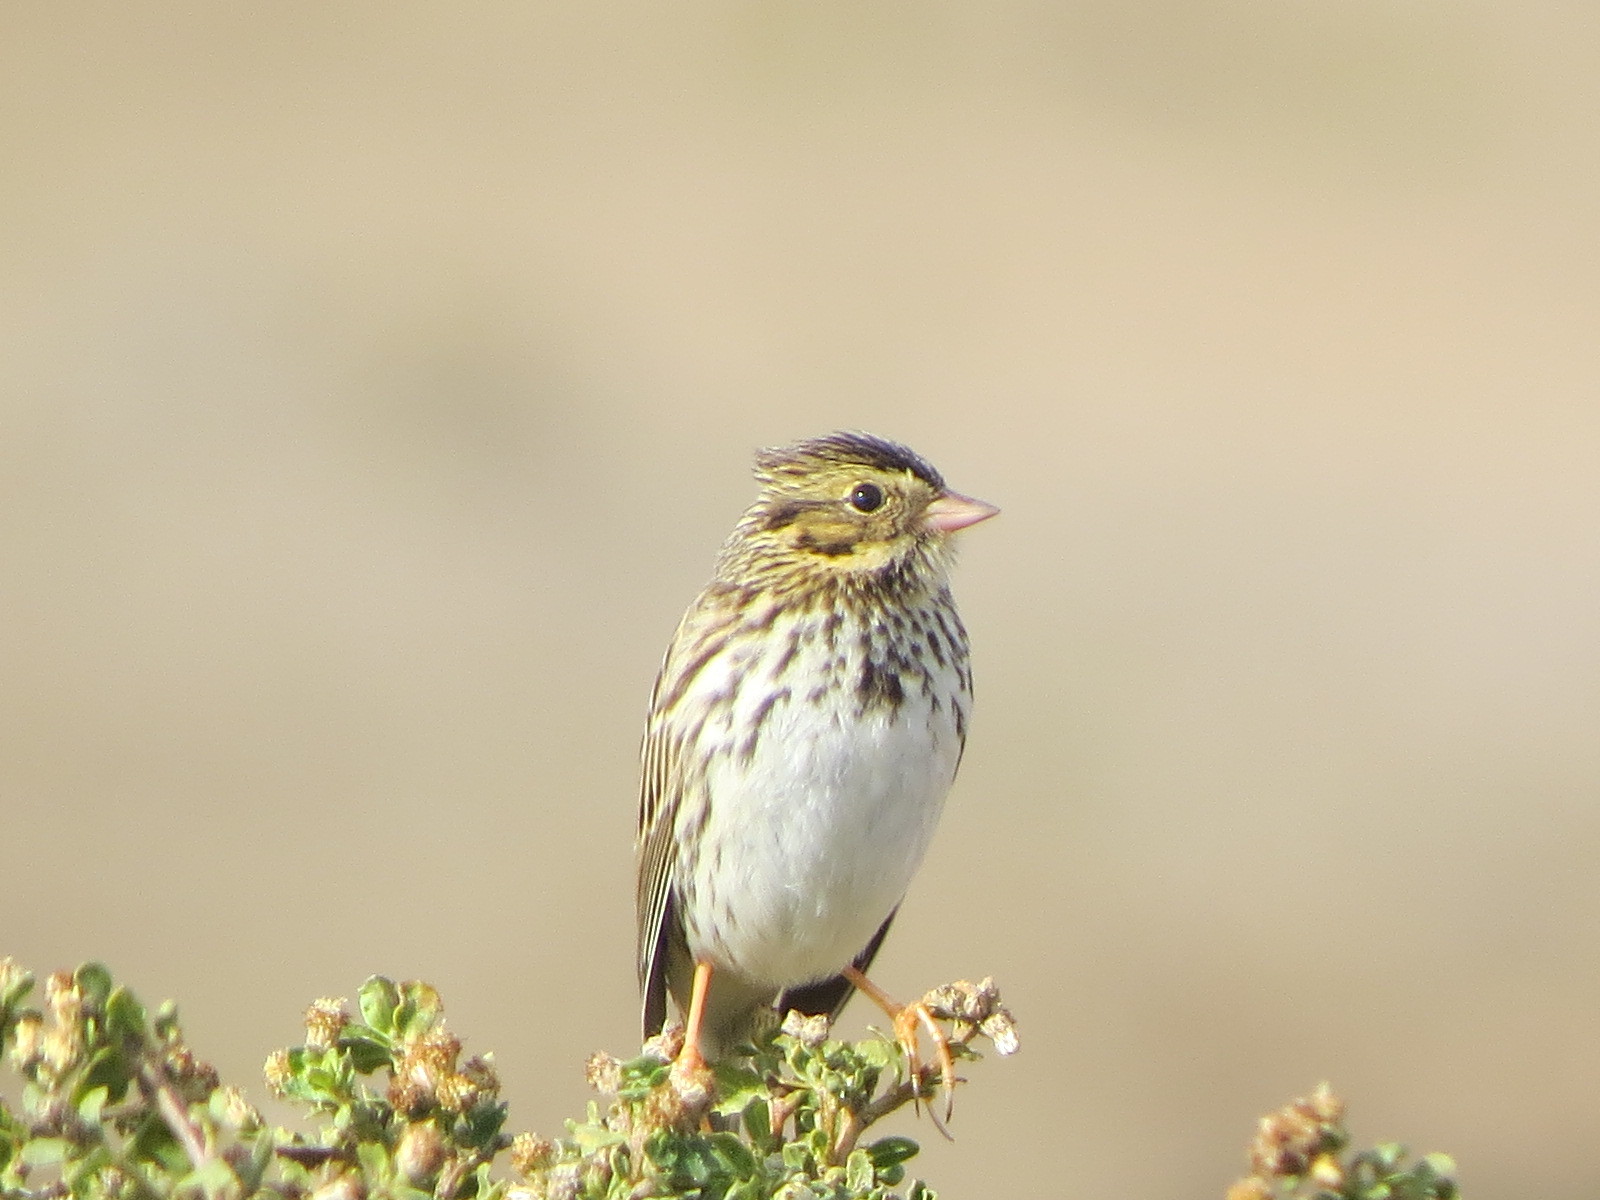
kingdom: Animalia
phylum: Chordata
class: Aves
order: Passeriformes
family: Passerellidae
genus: Passerculus
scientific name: Passerculus sandwichensis
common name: Savannah sparrow
